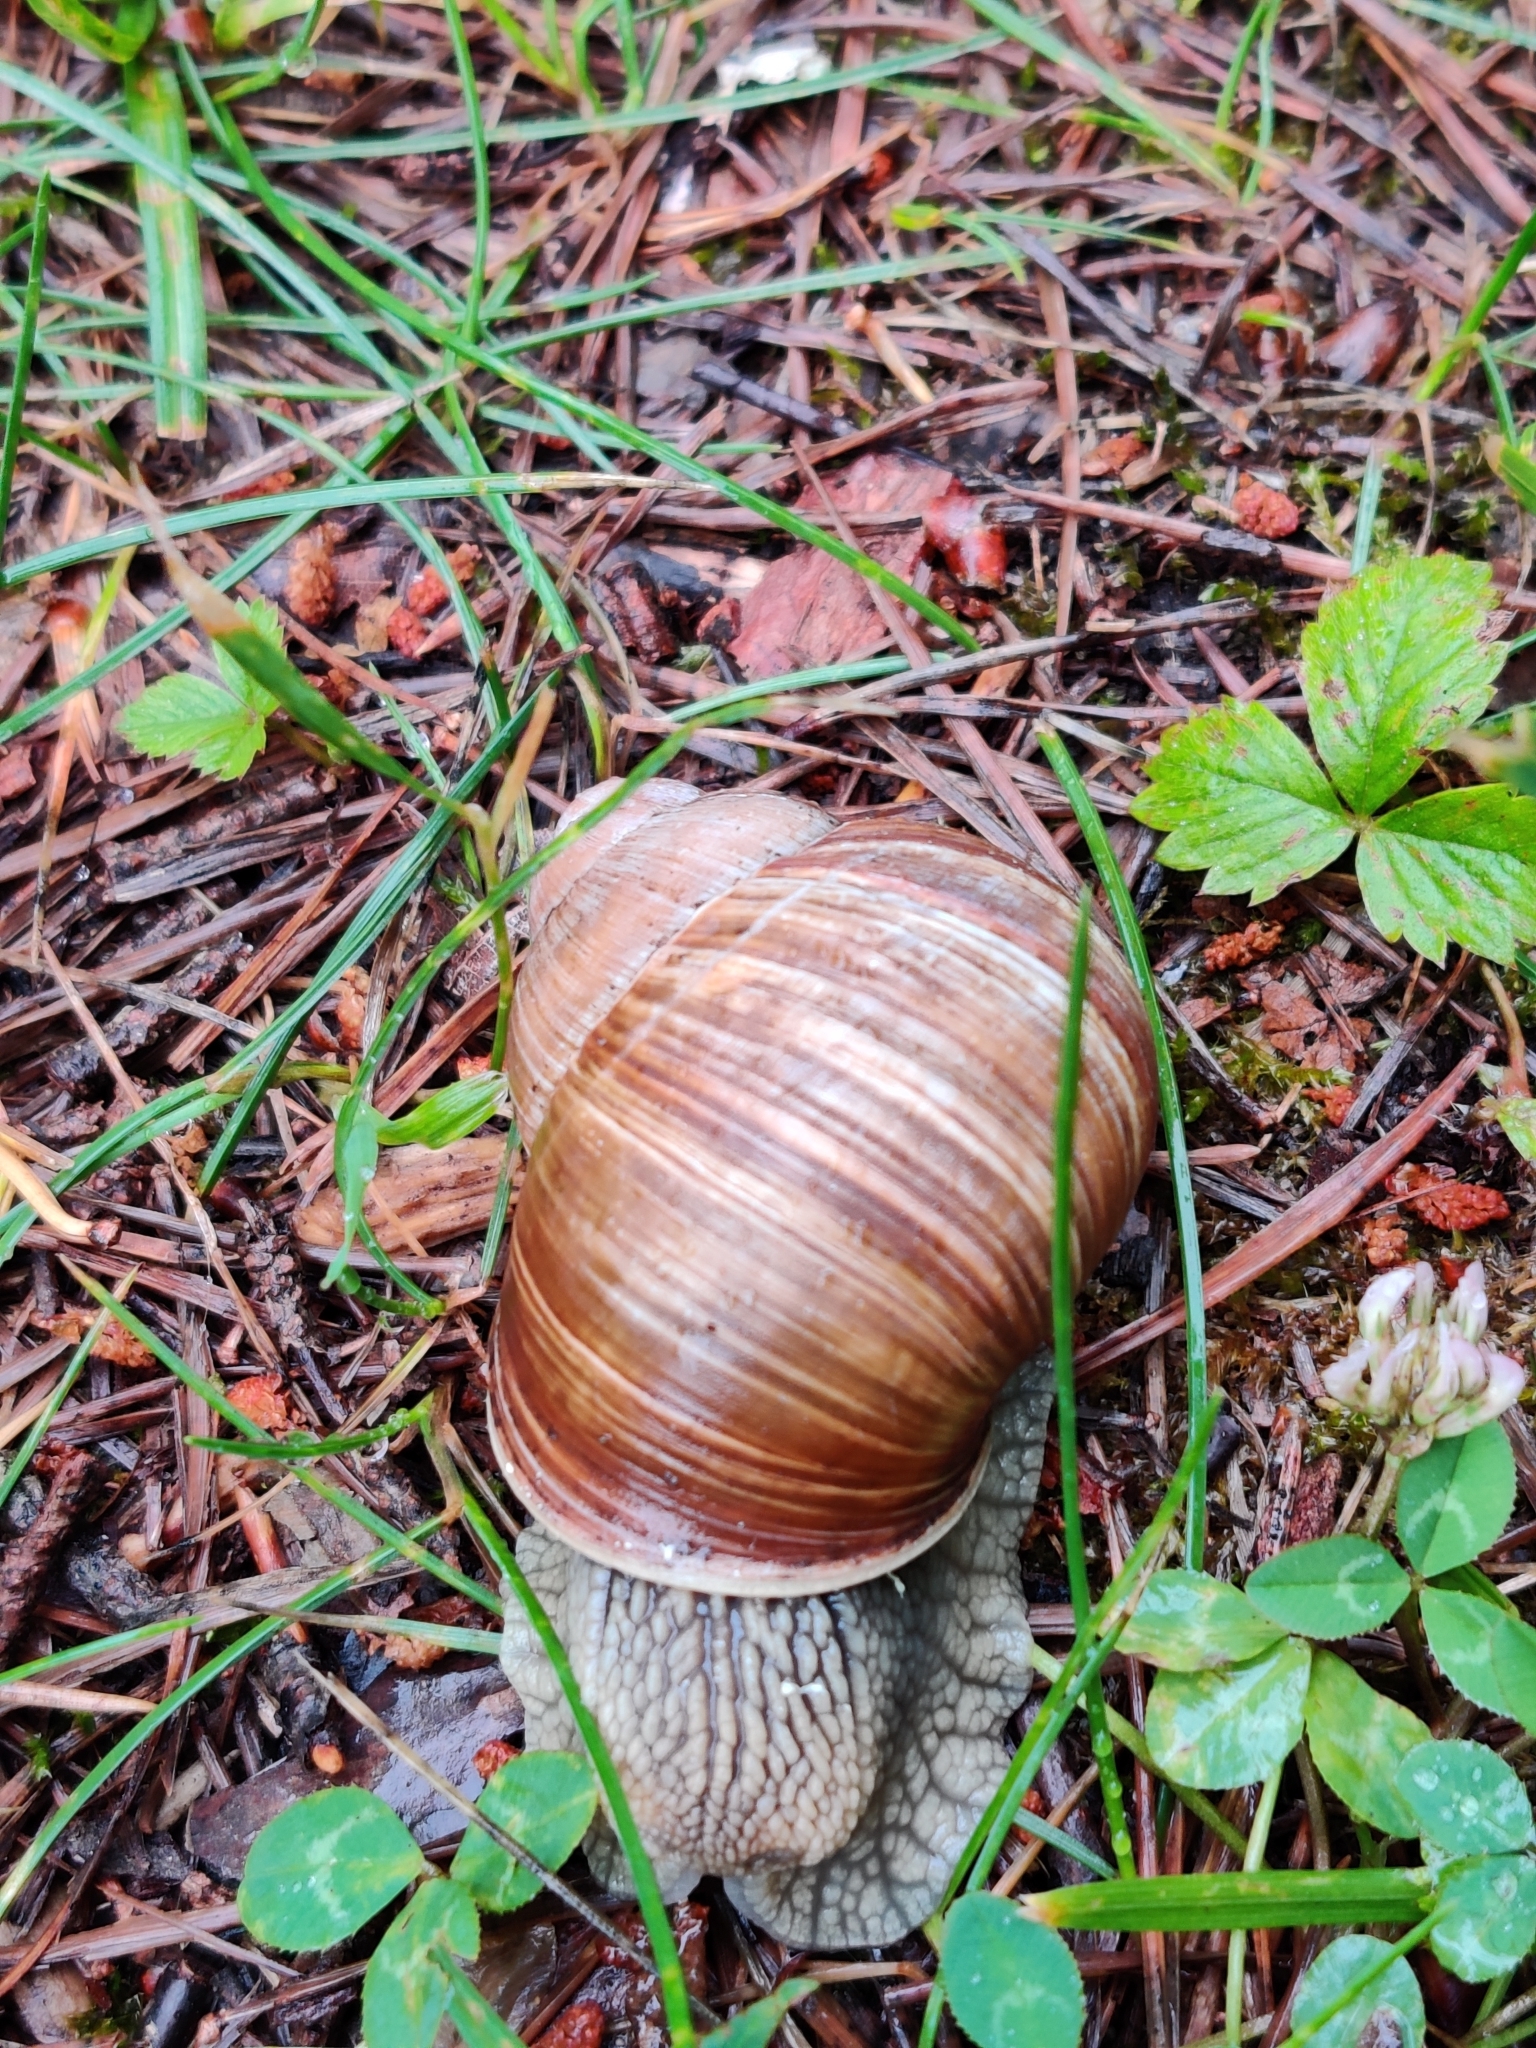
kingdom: Animalia
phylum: Mollusca
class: Gastropoda
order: Stylommatophora
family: Helicidae
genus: Helix
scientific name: Helix pomatia
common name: Roman snail
